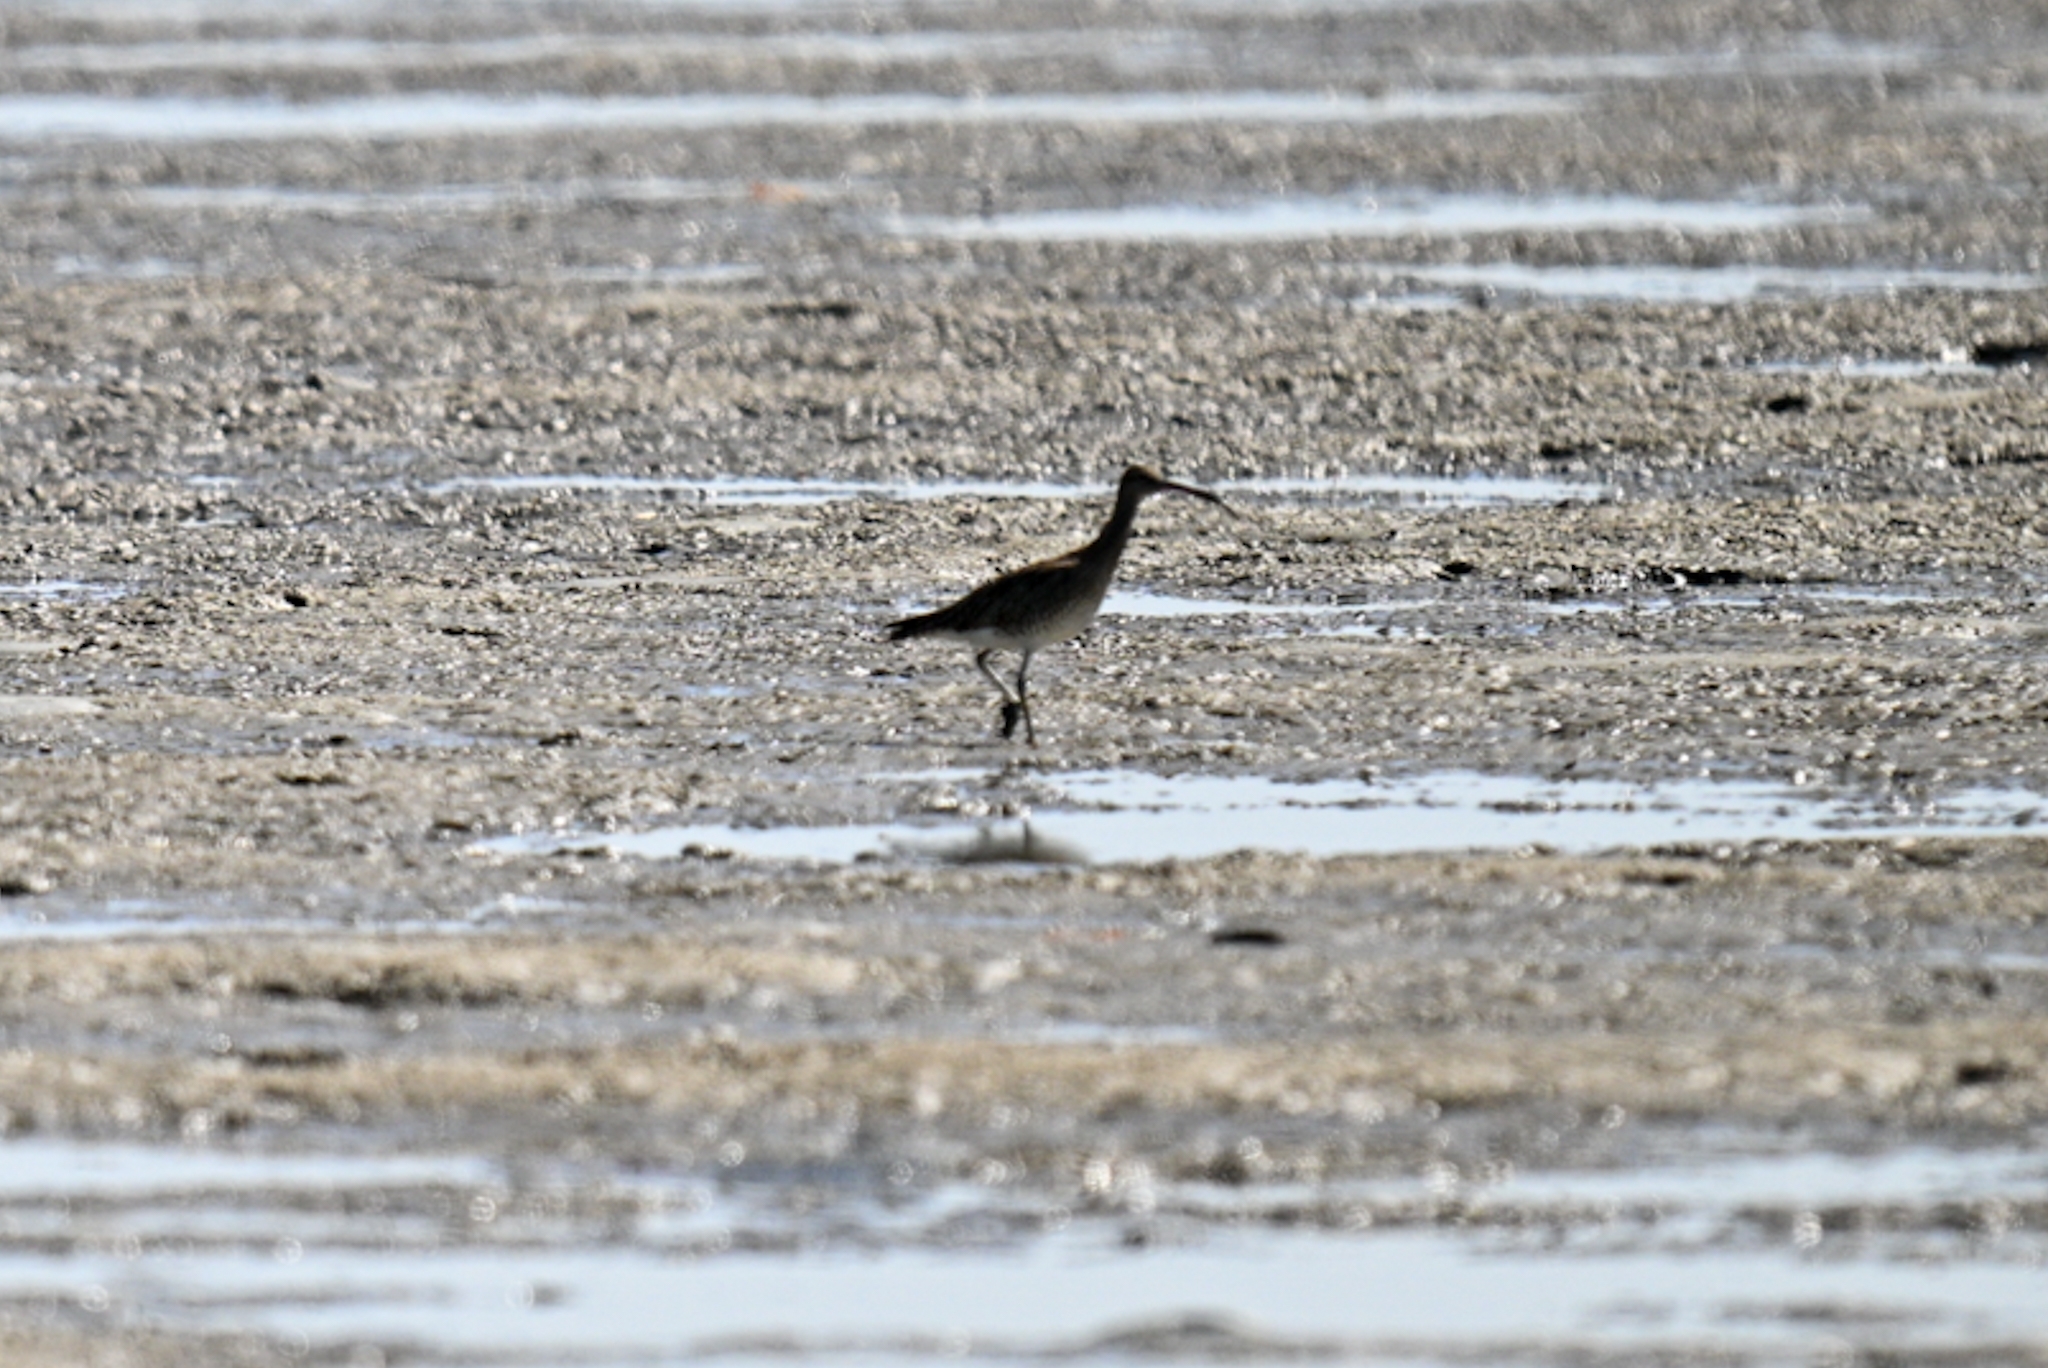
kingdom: Animalia
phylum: Chordata
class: Aves
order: Charadriiformes
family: Scolopacidae
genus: Numenius
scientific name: Numenius phaeopus
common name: Whimbrel
